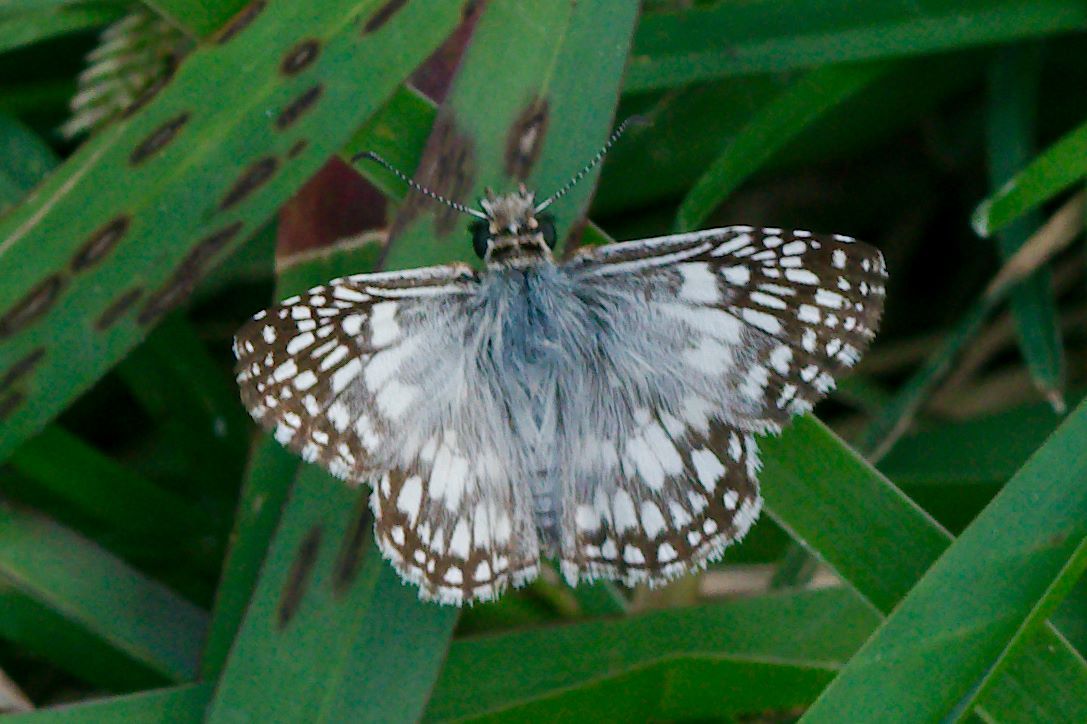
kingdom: Animalia
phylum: Arthropoda
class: Insecta
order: Lepidoptera
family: Hesperiidae
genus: Pyrgus
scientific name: Pyrgus oileus
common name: Tropical checkered-skipper
